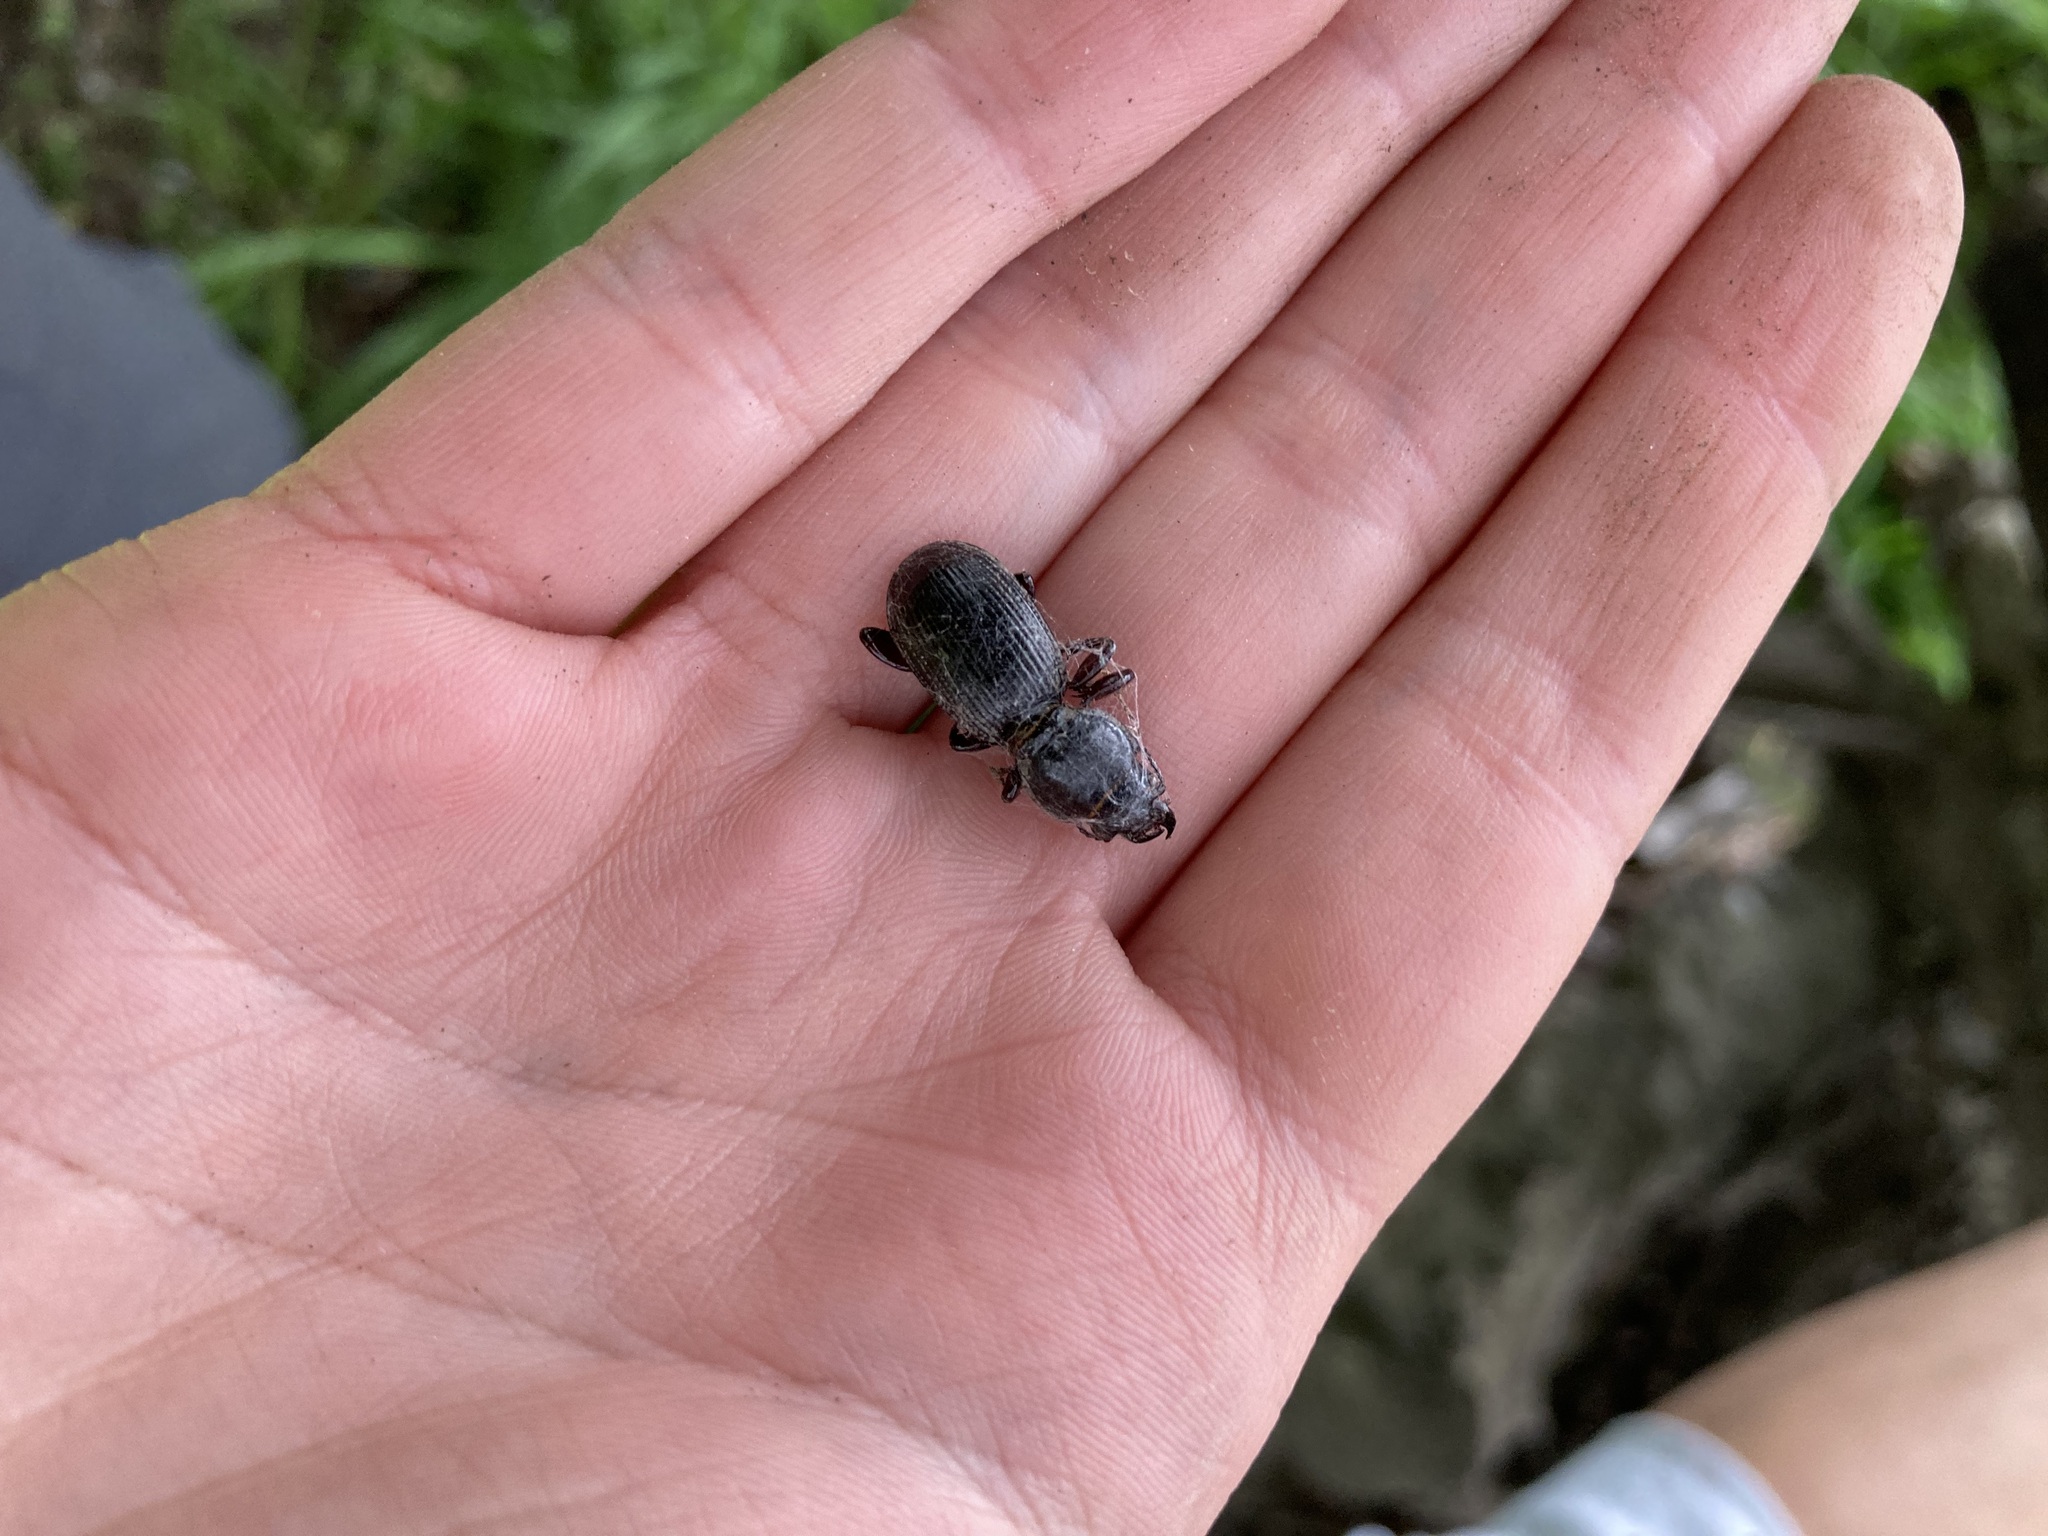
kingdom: Animalia
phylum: Arthropoda
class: Insecta
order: Coleoptera
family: Carabidae
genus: Mecodema
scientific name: Mecodema moniliferum
